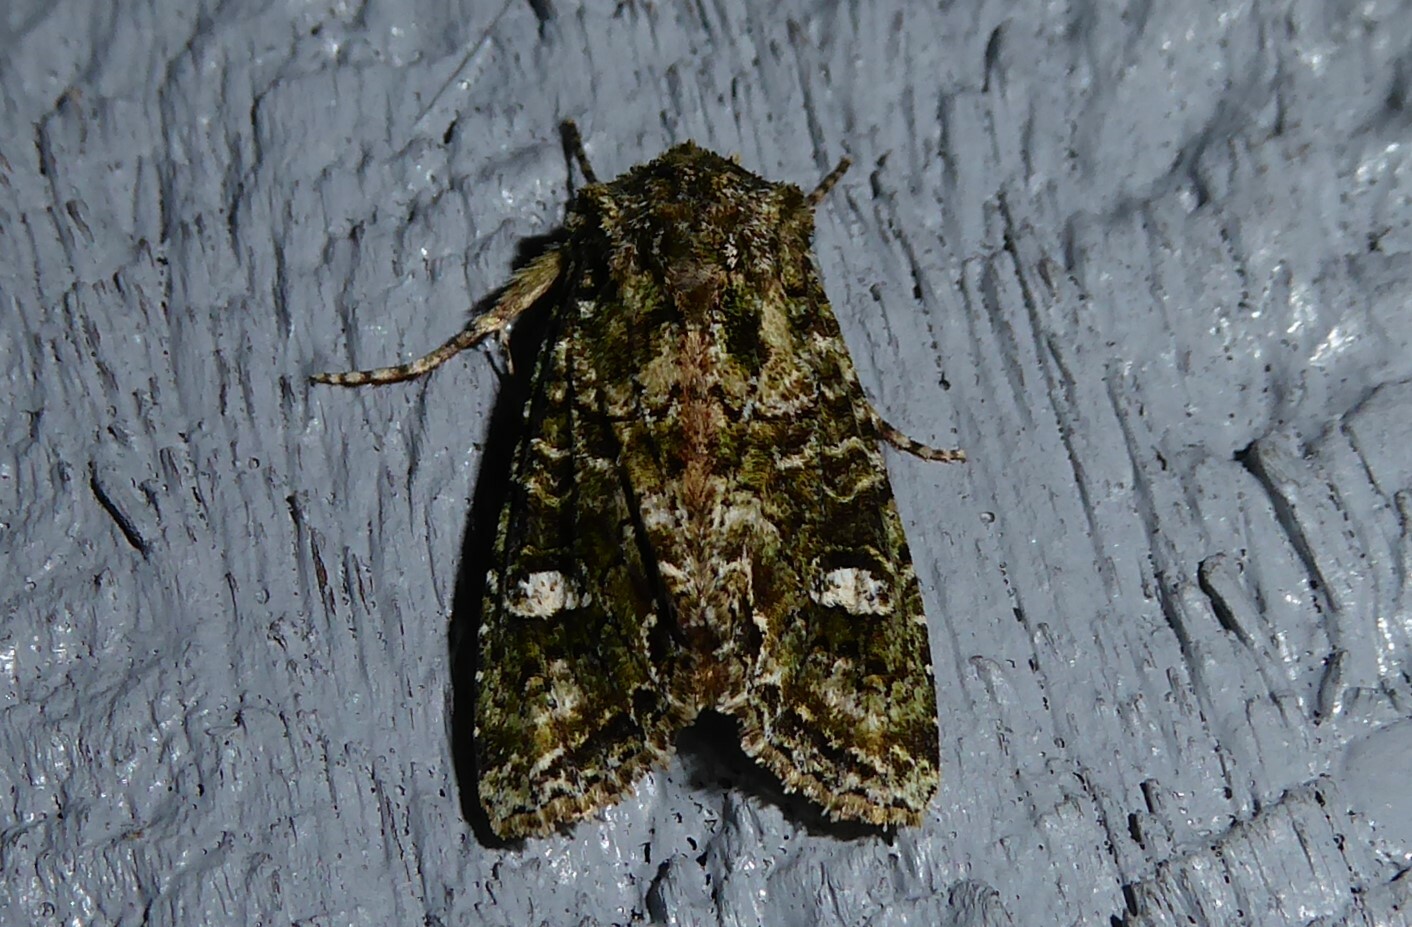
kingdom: Animalia
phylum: Arthropoda
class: Insecta
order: Lepidoptera
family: Noctuidae
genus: Ichneutica
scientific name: Ichneutica
